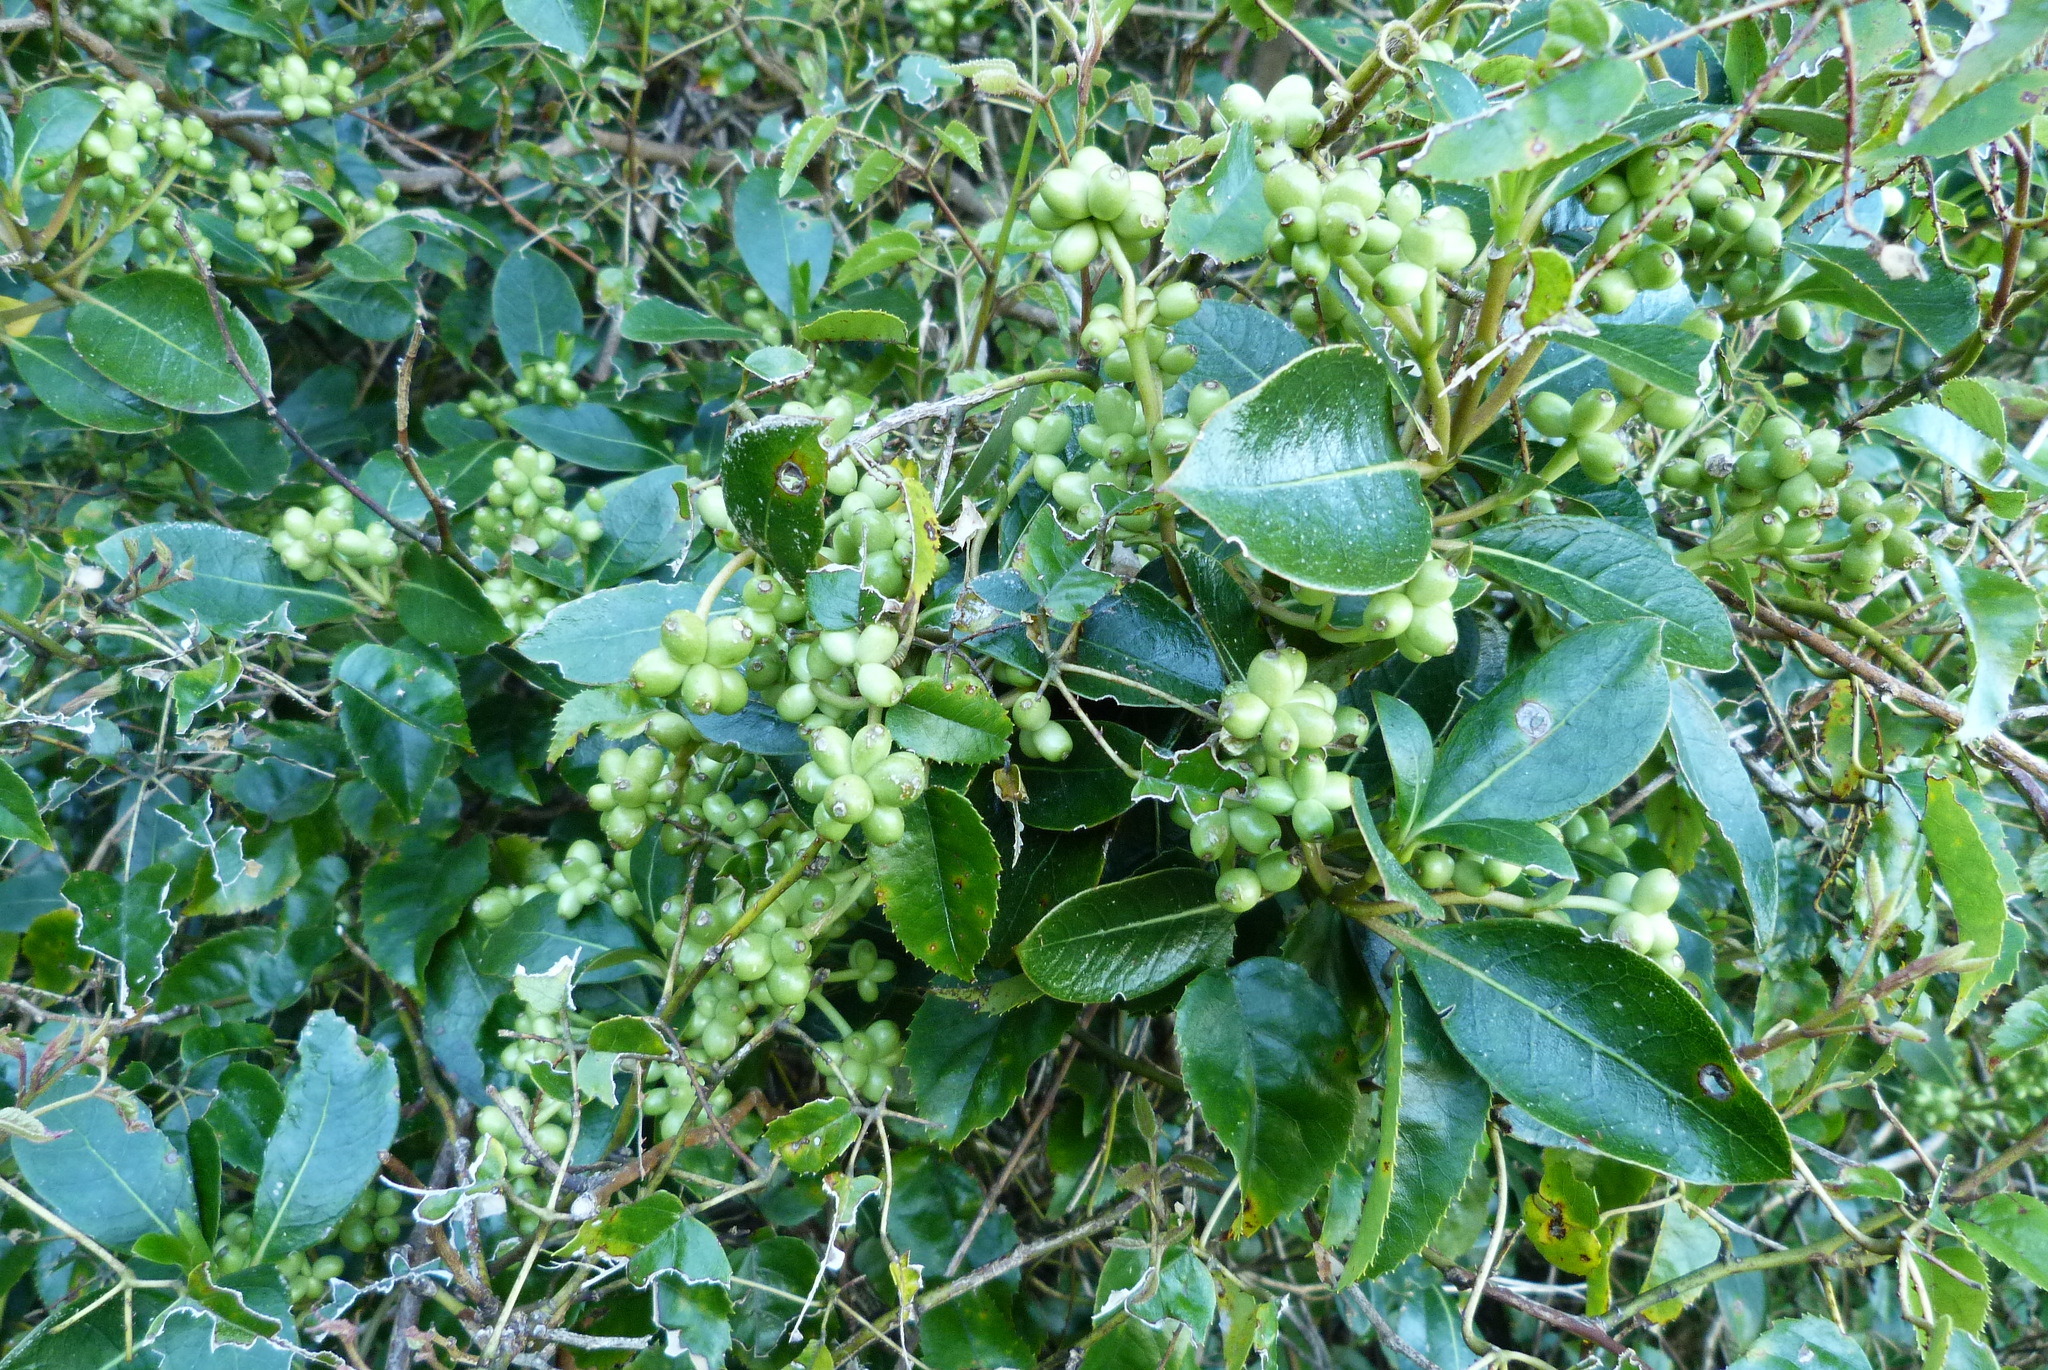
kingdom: Plantae
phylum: Tracheophyta
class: Magnoliopsida
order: Gentianales
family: Rubiaceae
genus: Coprosma
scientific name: Coprosma lucida
